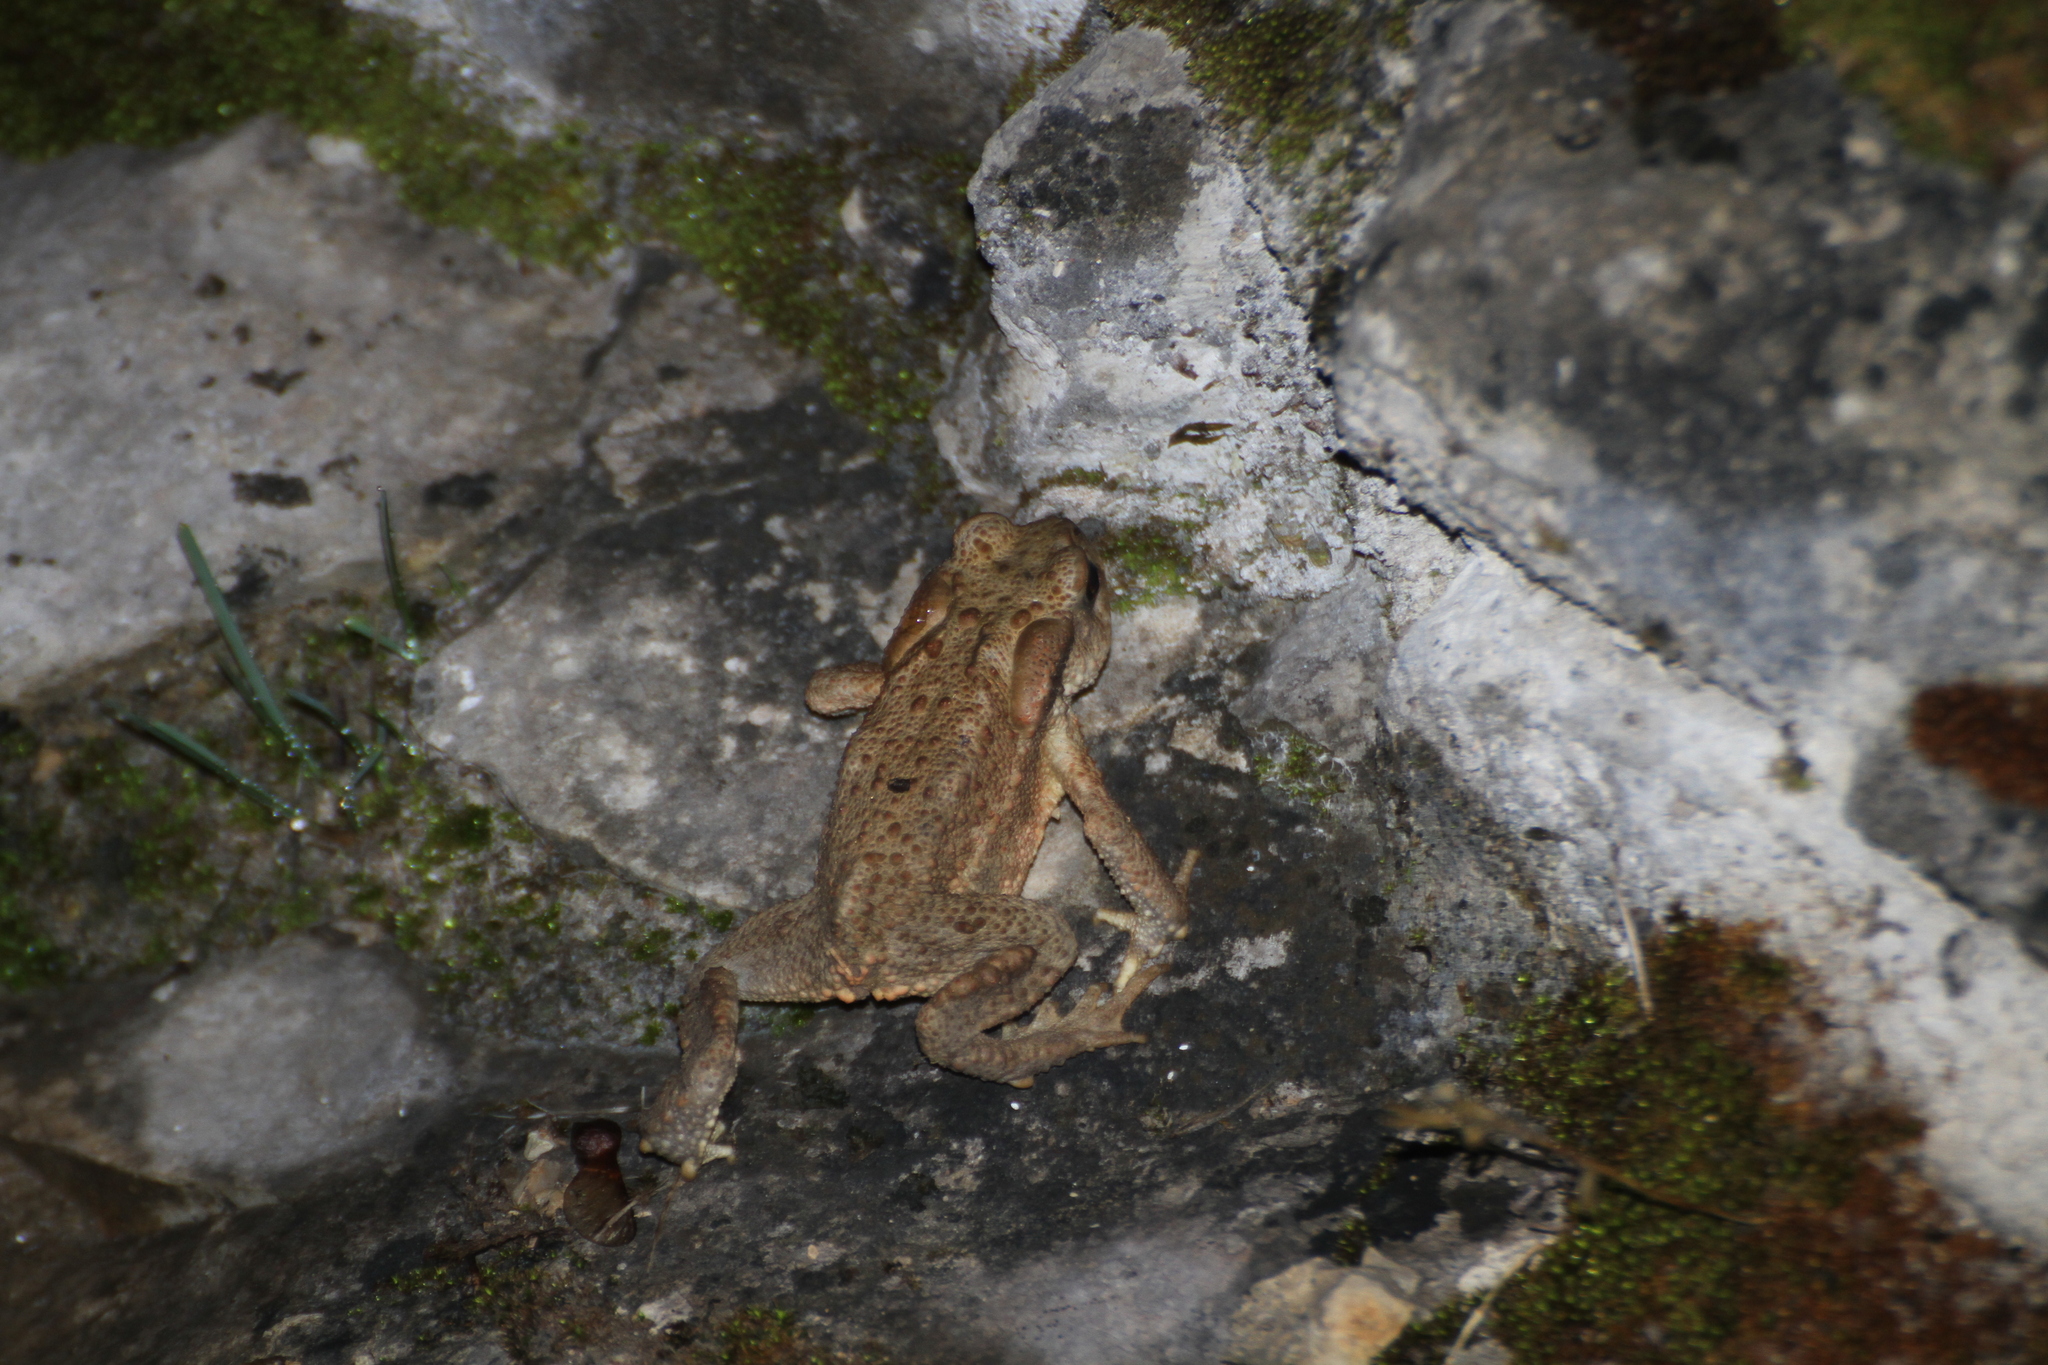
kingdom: Animalia
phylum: Chordata
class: Amphibia
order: Anura
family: Bufonidae
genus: Bufo
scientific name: Bufo spinosus
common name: Western common toad
